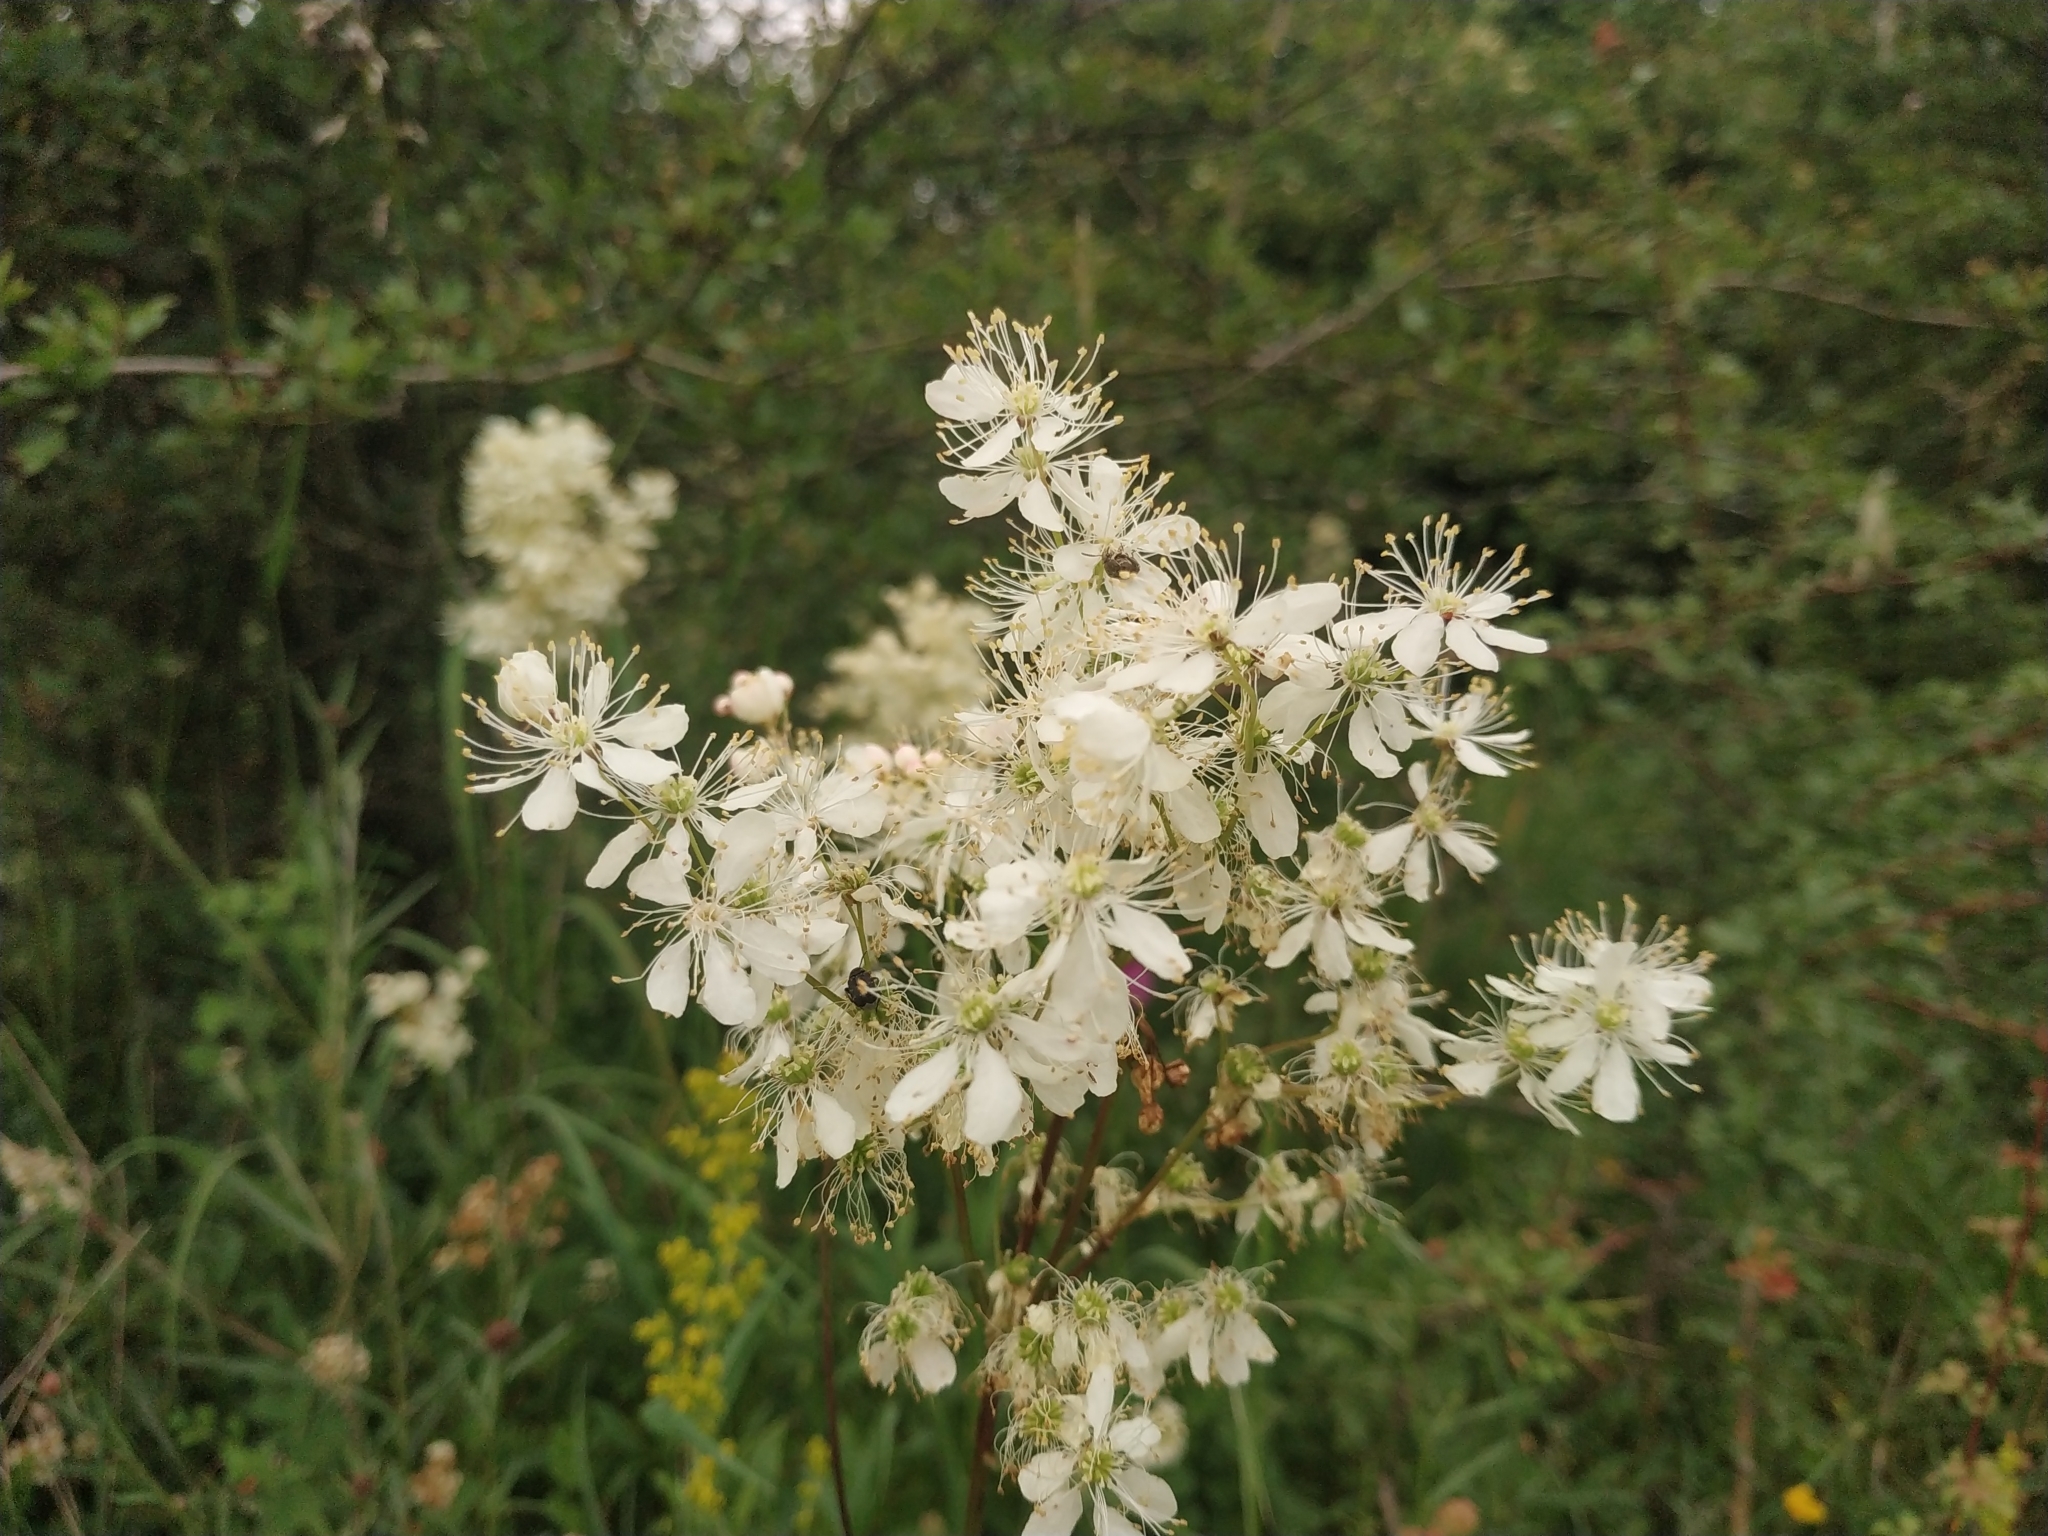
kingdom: Plantae
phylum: Tracheophyta
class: Magnoliopsida
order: Rosales
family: Rosaceae
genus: Filipendula
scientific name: Filipendula ulmaria
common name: Meadowsweet
